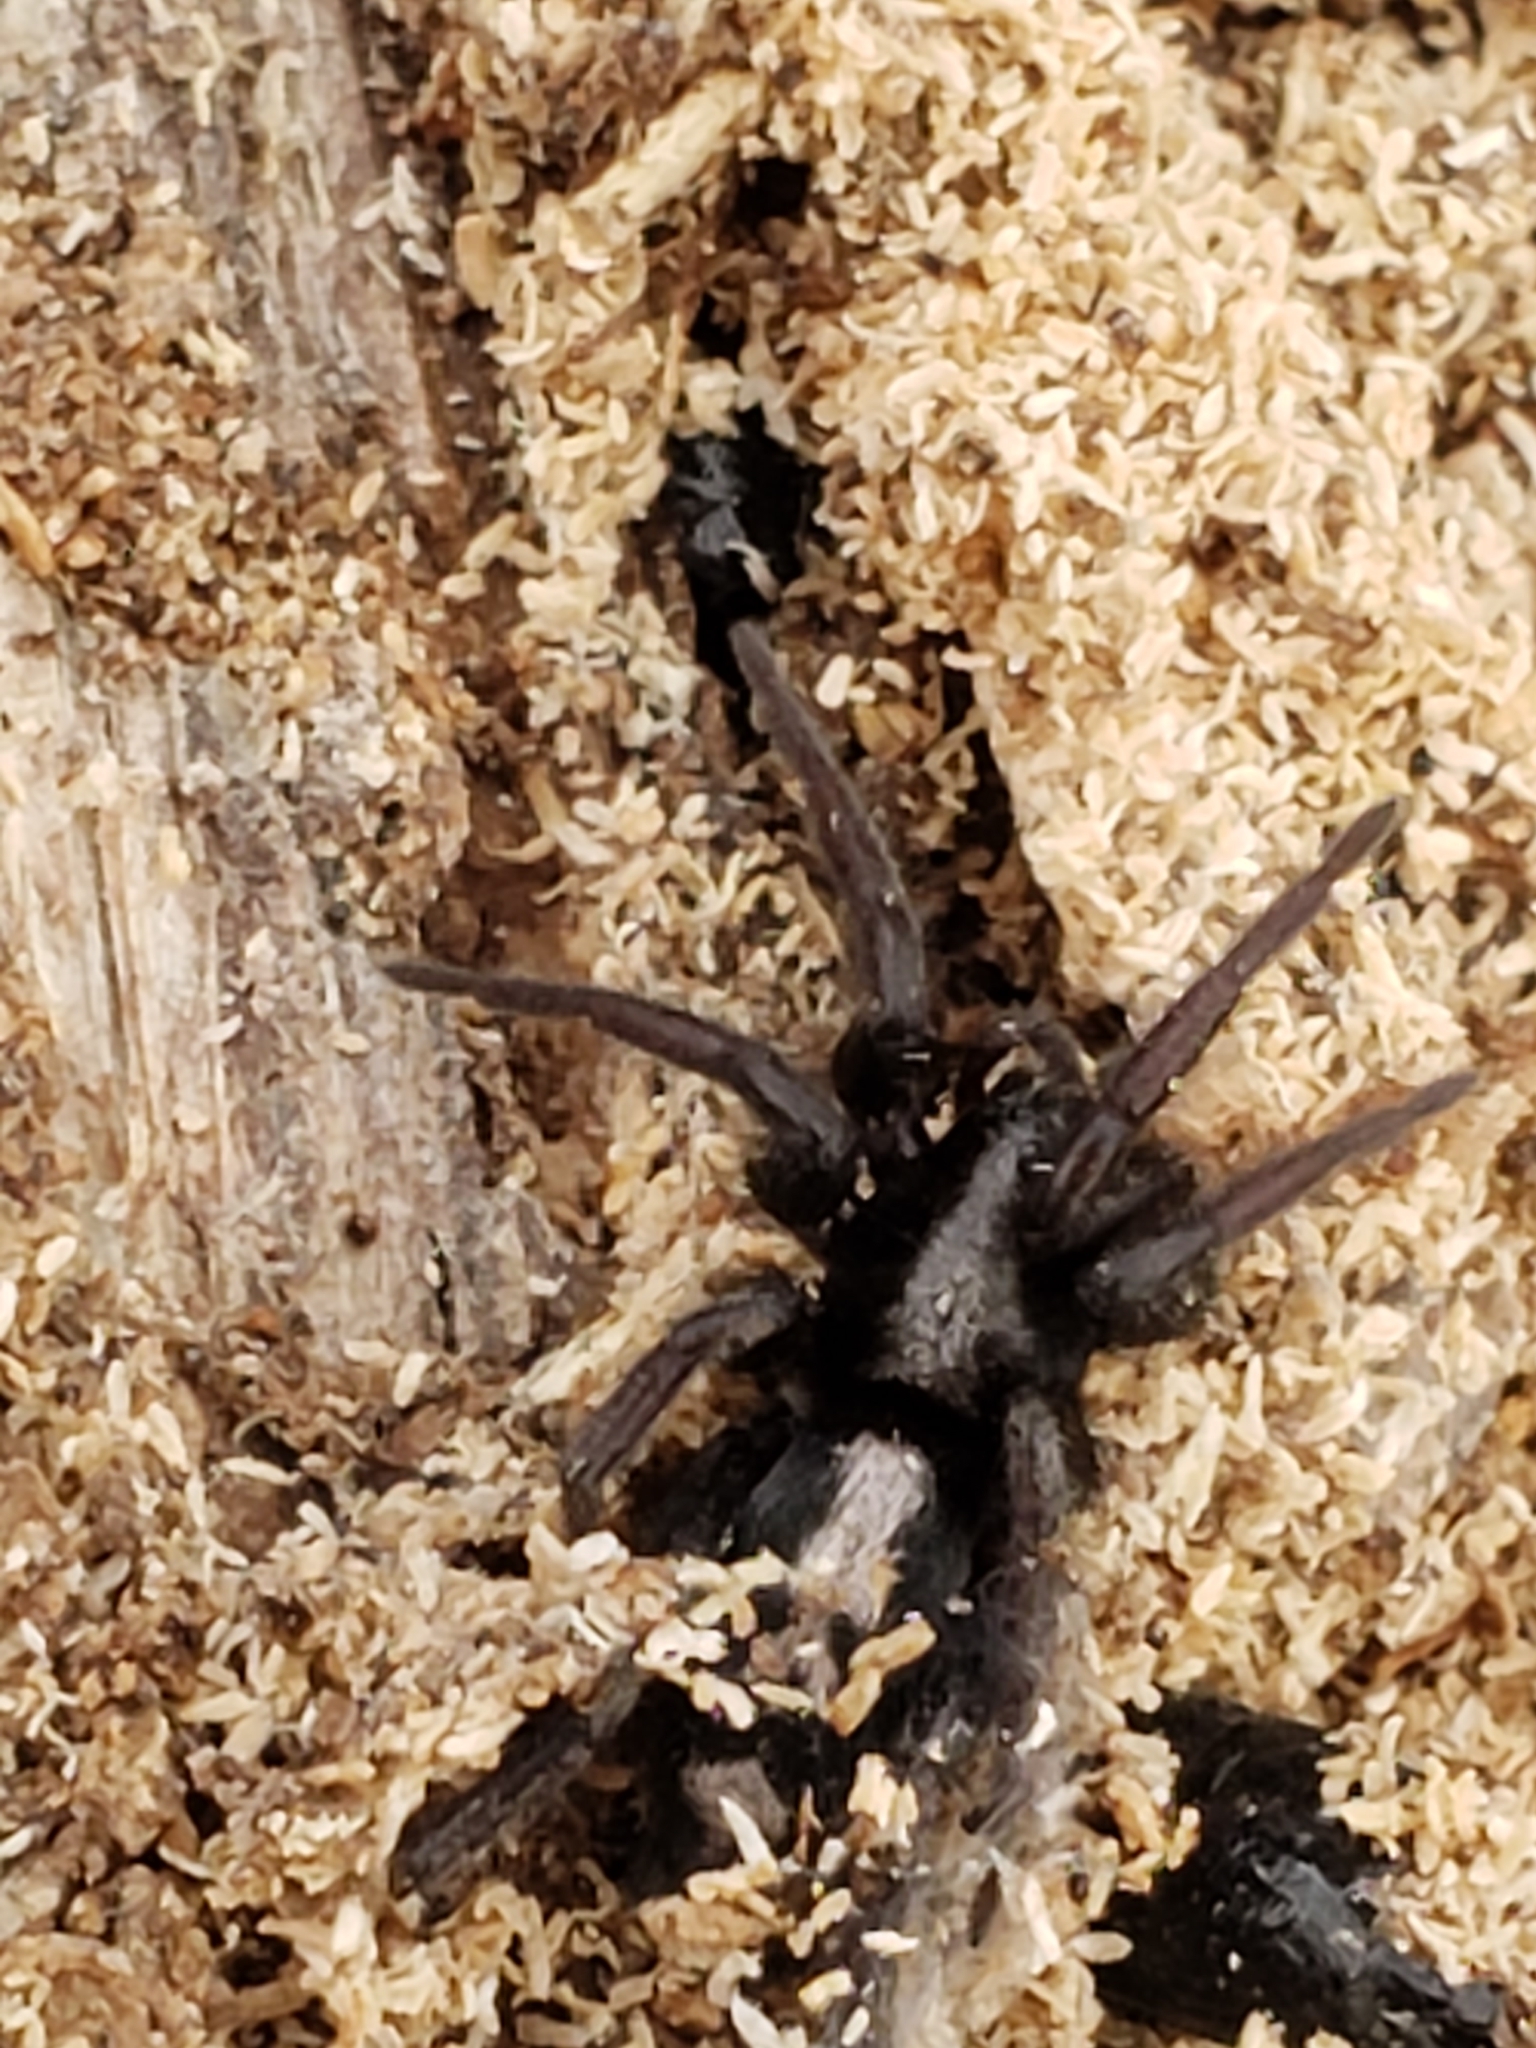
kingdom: Animalia
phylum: Arthropoda
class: Arachnida
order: Araneae
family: Gnaphosidae
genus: Herpyllus
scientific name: Herpyllus ecclesiasticus
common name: Eastern parson spider
